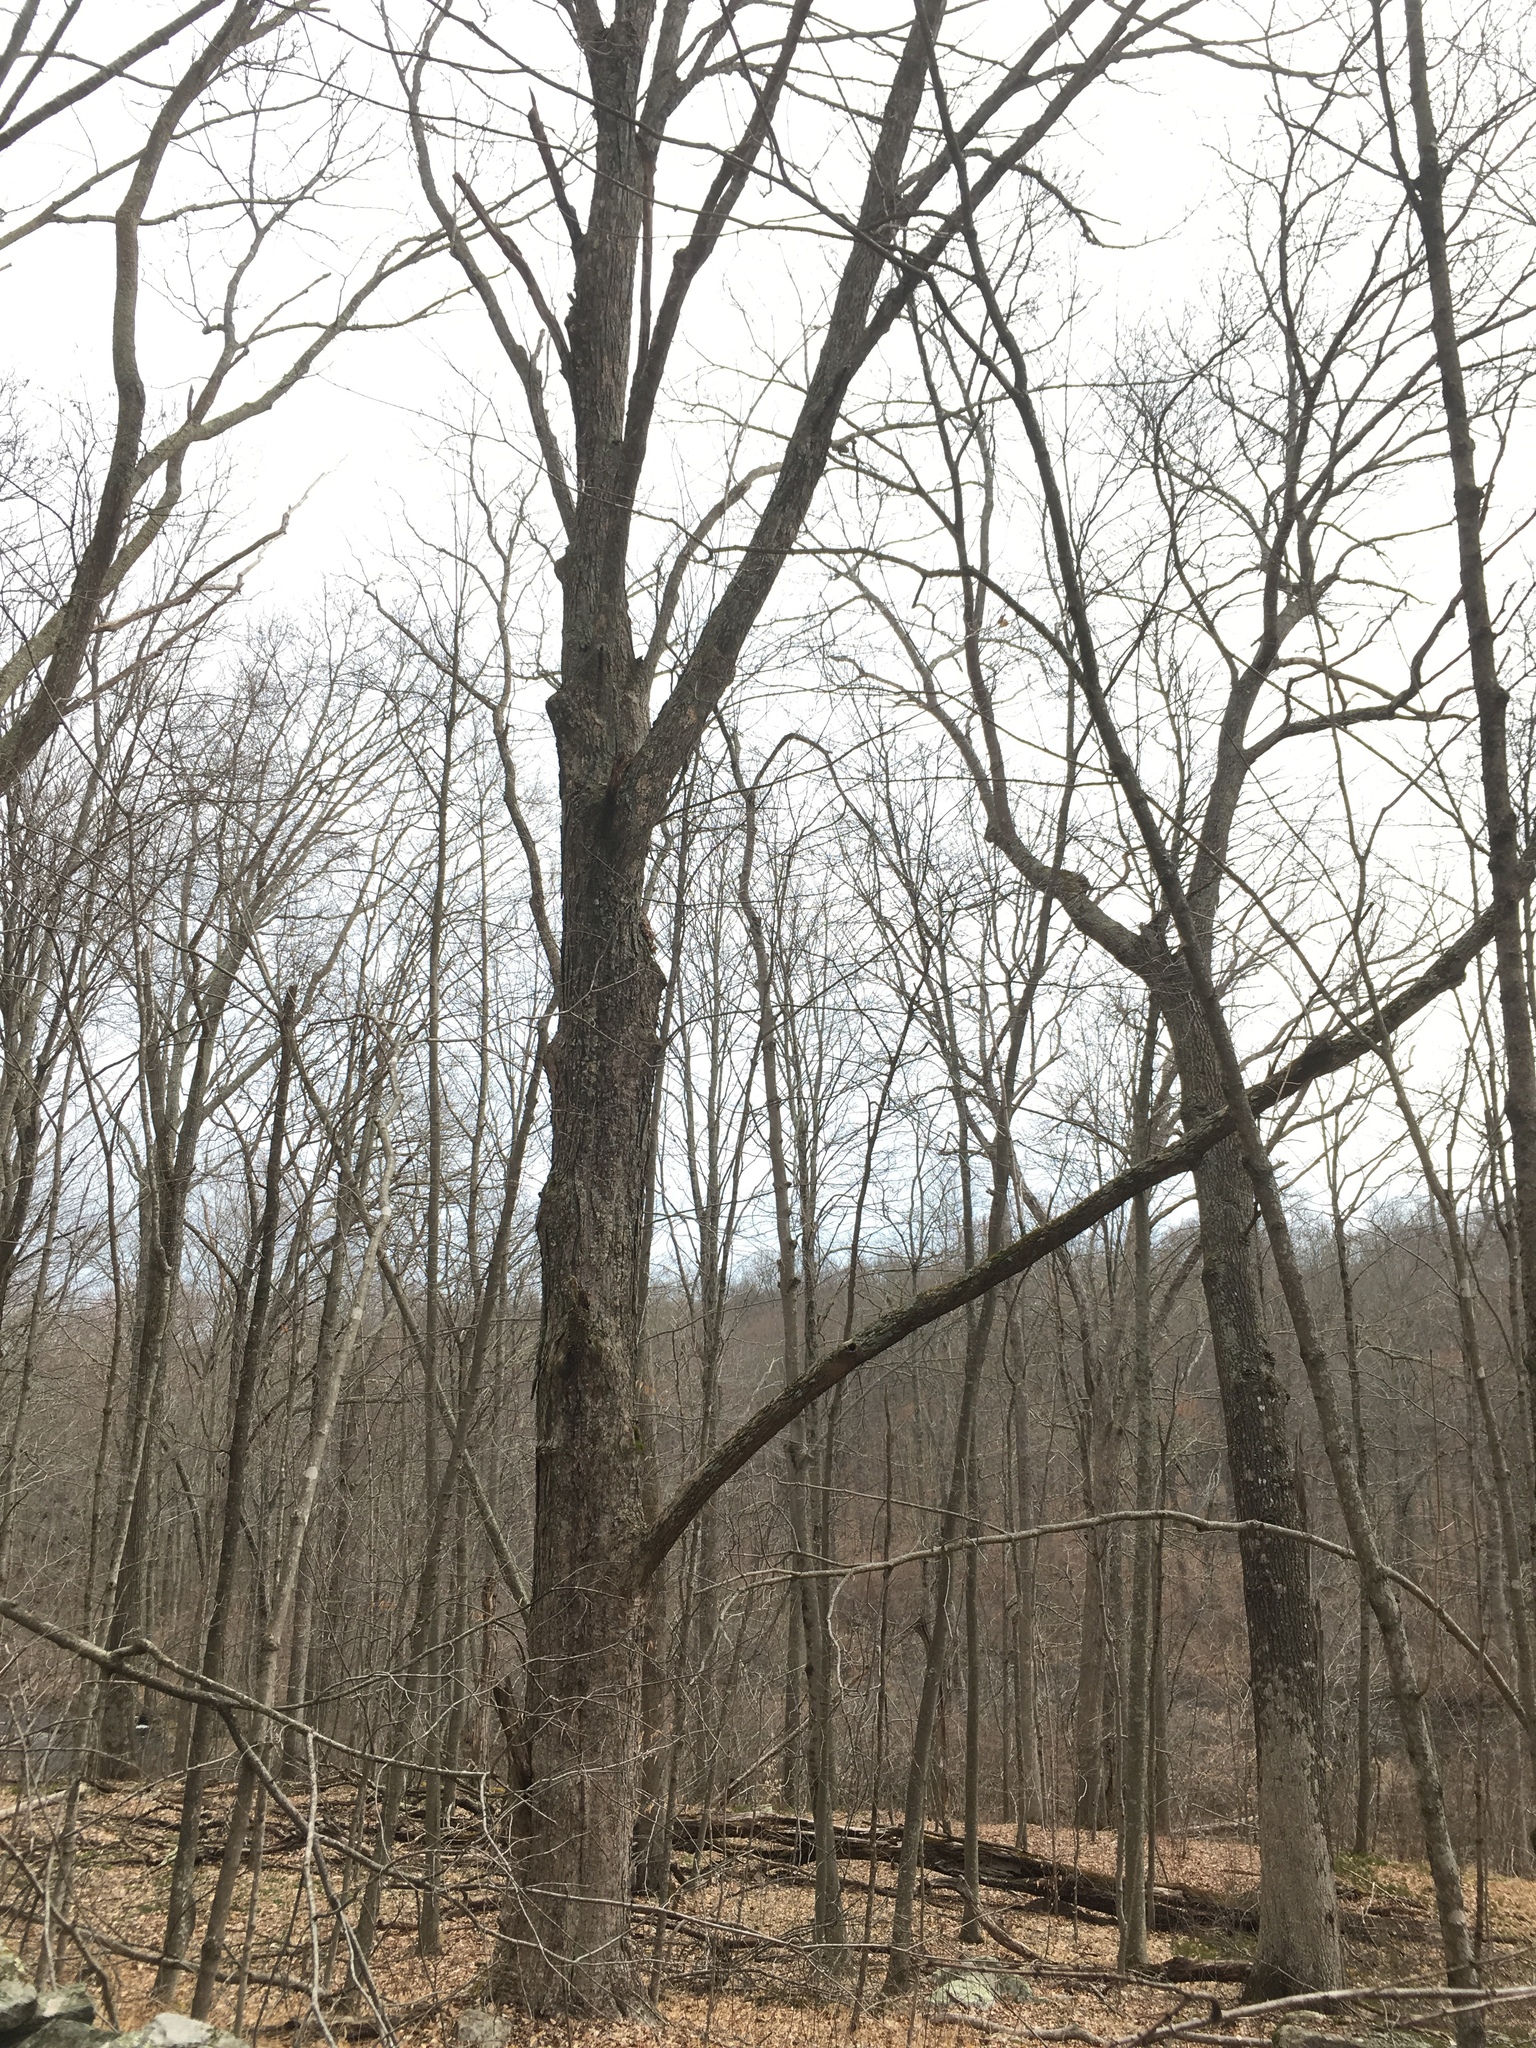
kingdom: Plantae
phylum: Tracheophyta
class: Magnoliopsida
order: Sapindales
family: Sapindaceae
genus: Acer
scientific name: Acer saccharum
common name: Sugar maple
